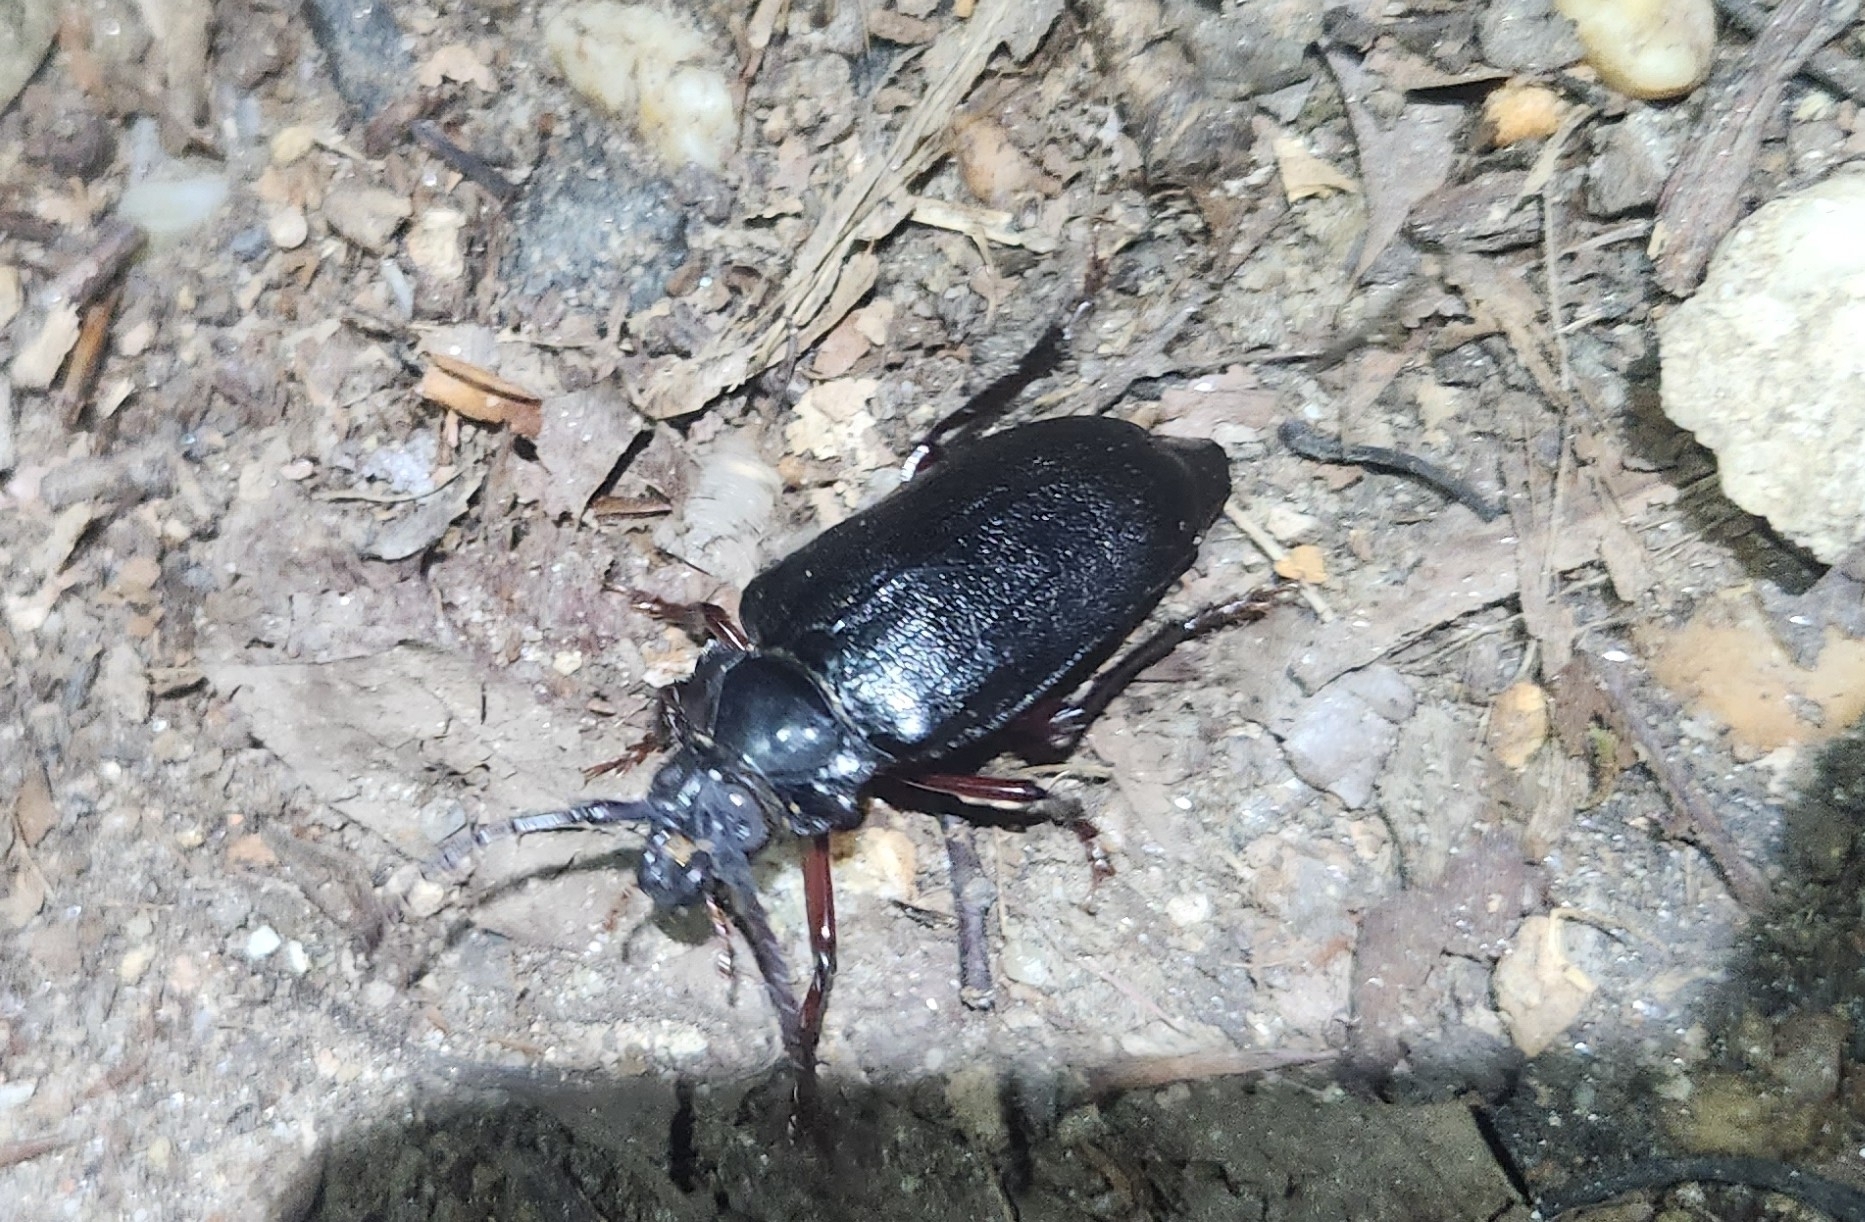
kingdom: Animalia
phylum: Arthropoda
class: Insecta
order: Coleoptera
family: Cerambycidae
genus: Prionus
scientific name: Prionus laticollis
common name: Broad necked prionus
